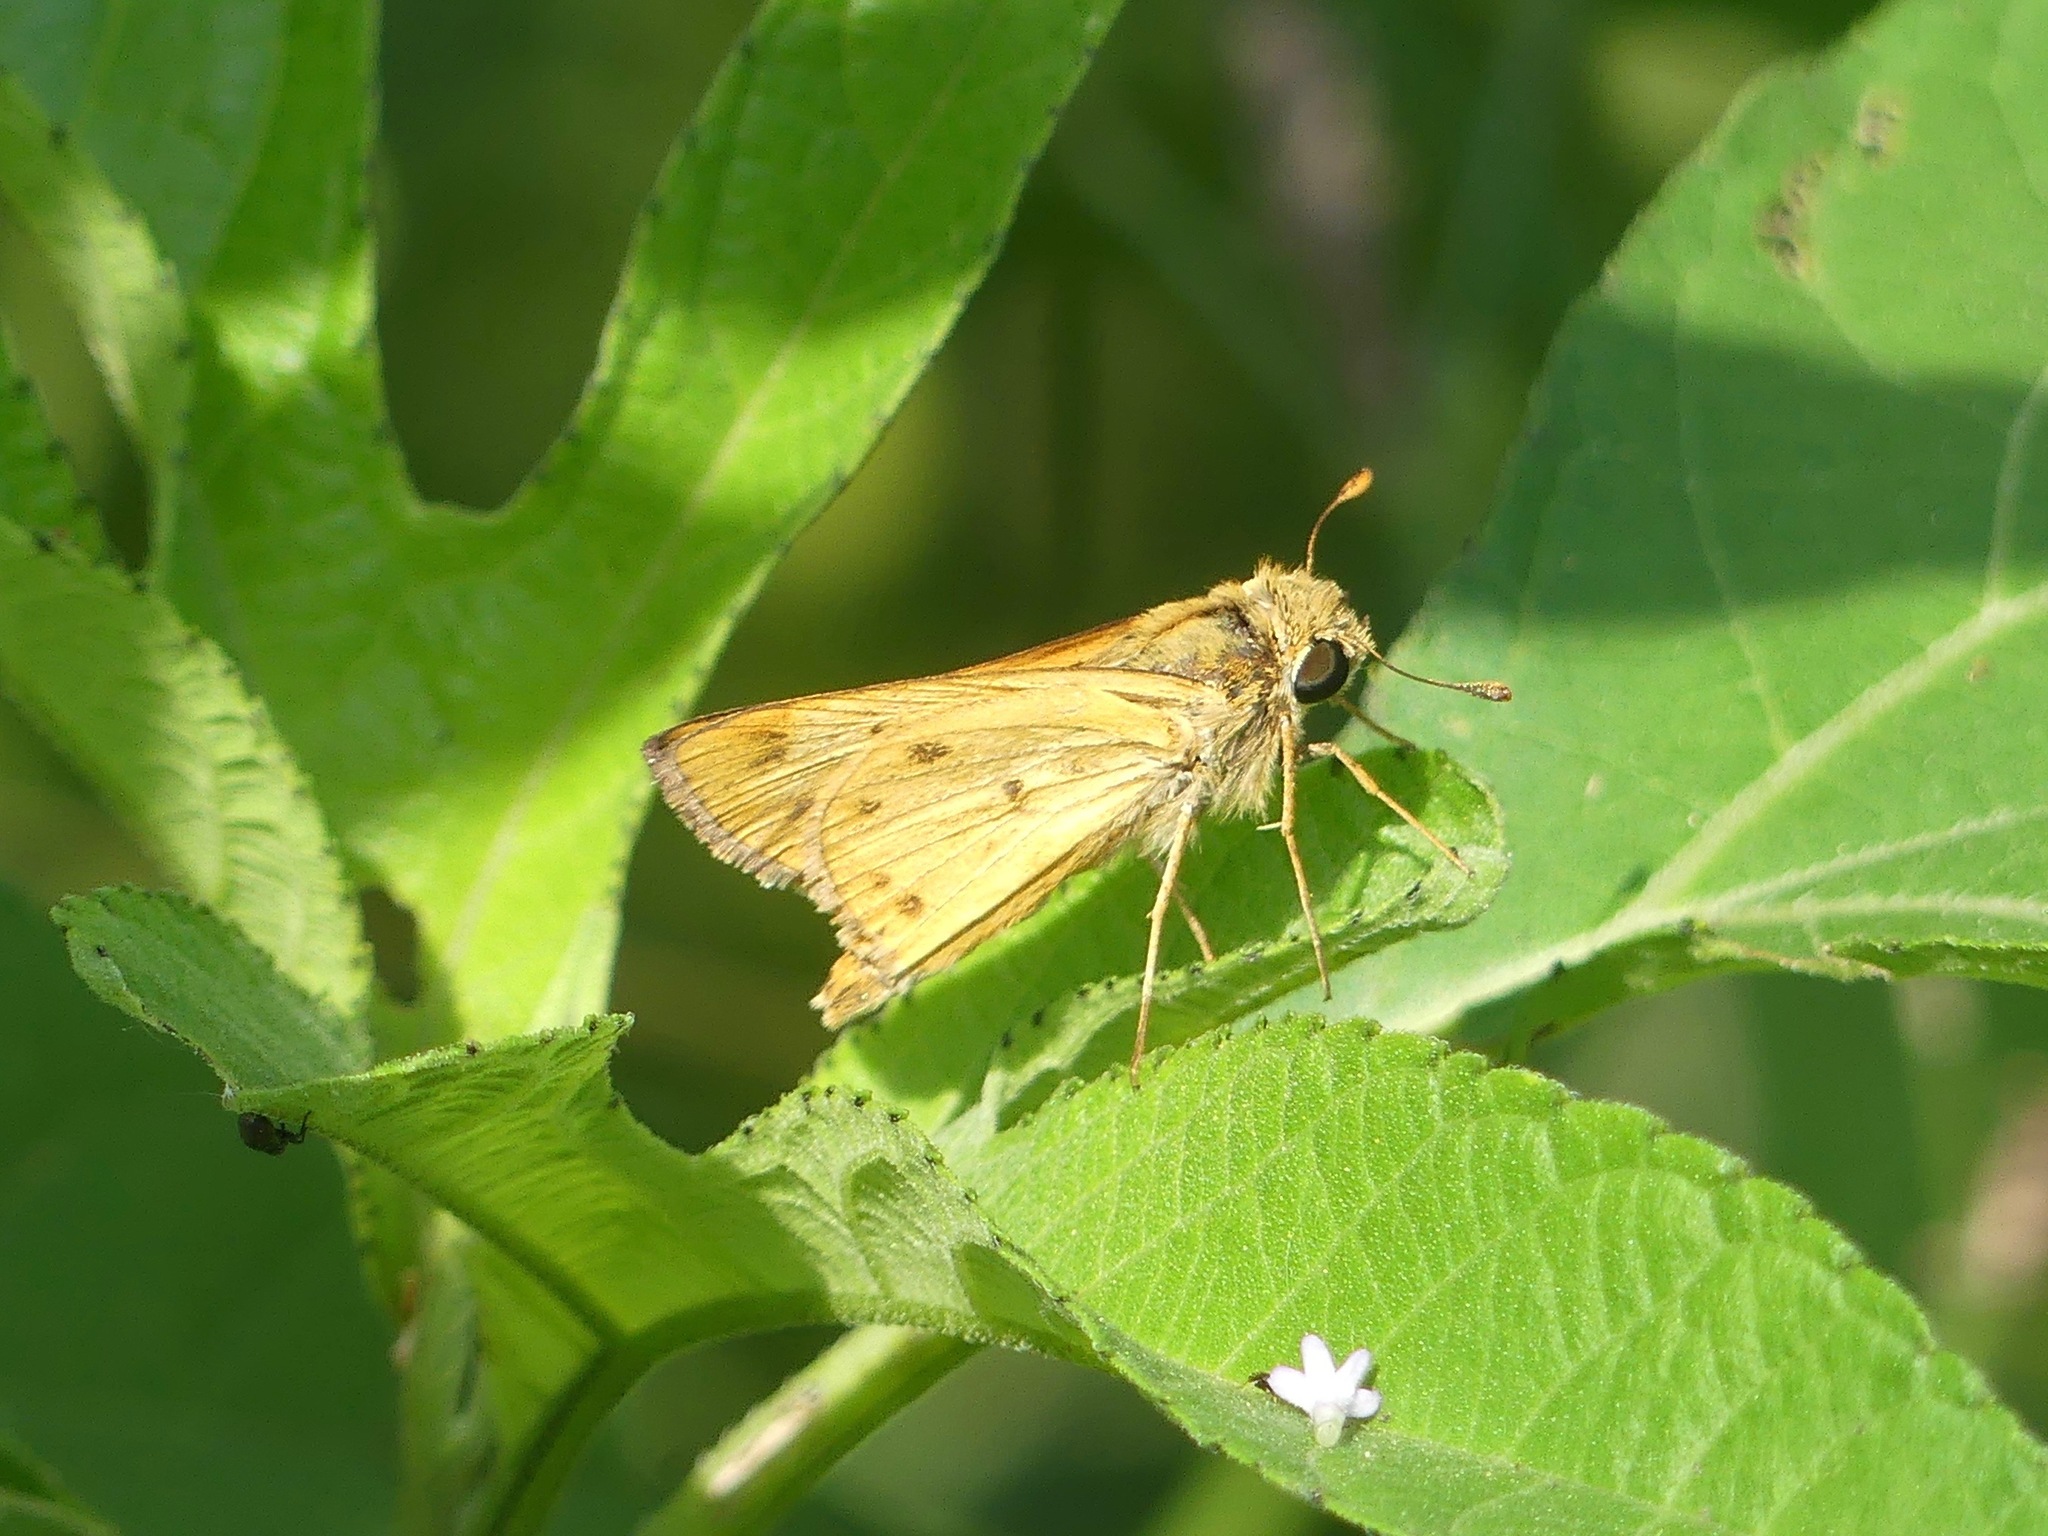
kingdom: Animalia
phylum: Arthropoda
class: Insecta
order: Lepidoptera
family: Hesperiidae
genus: Hylephila
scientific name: Hylephila phyleus
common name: Fiery skipper
